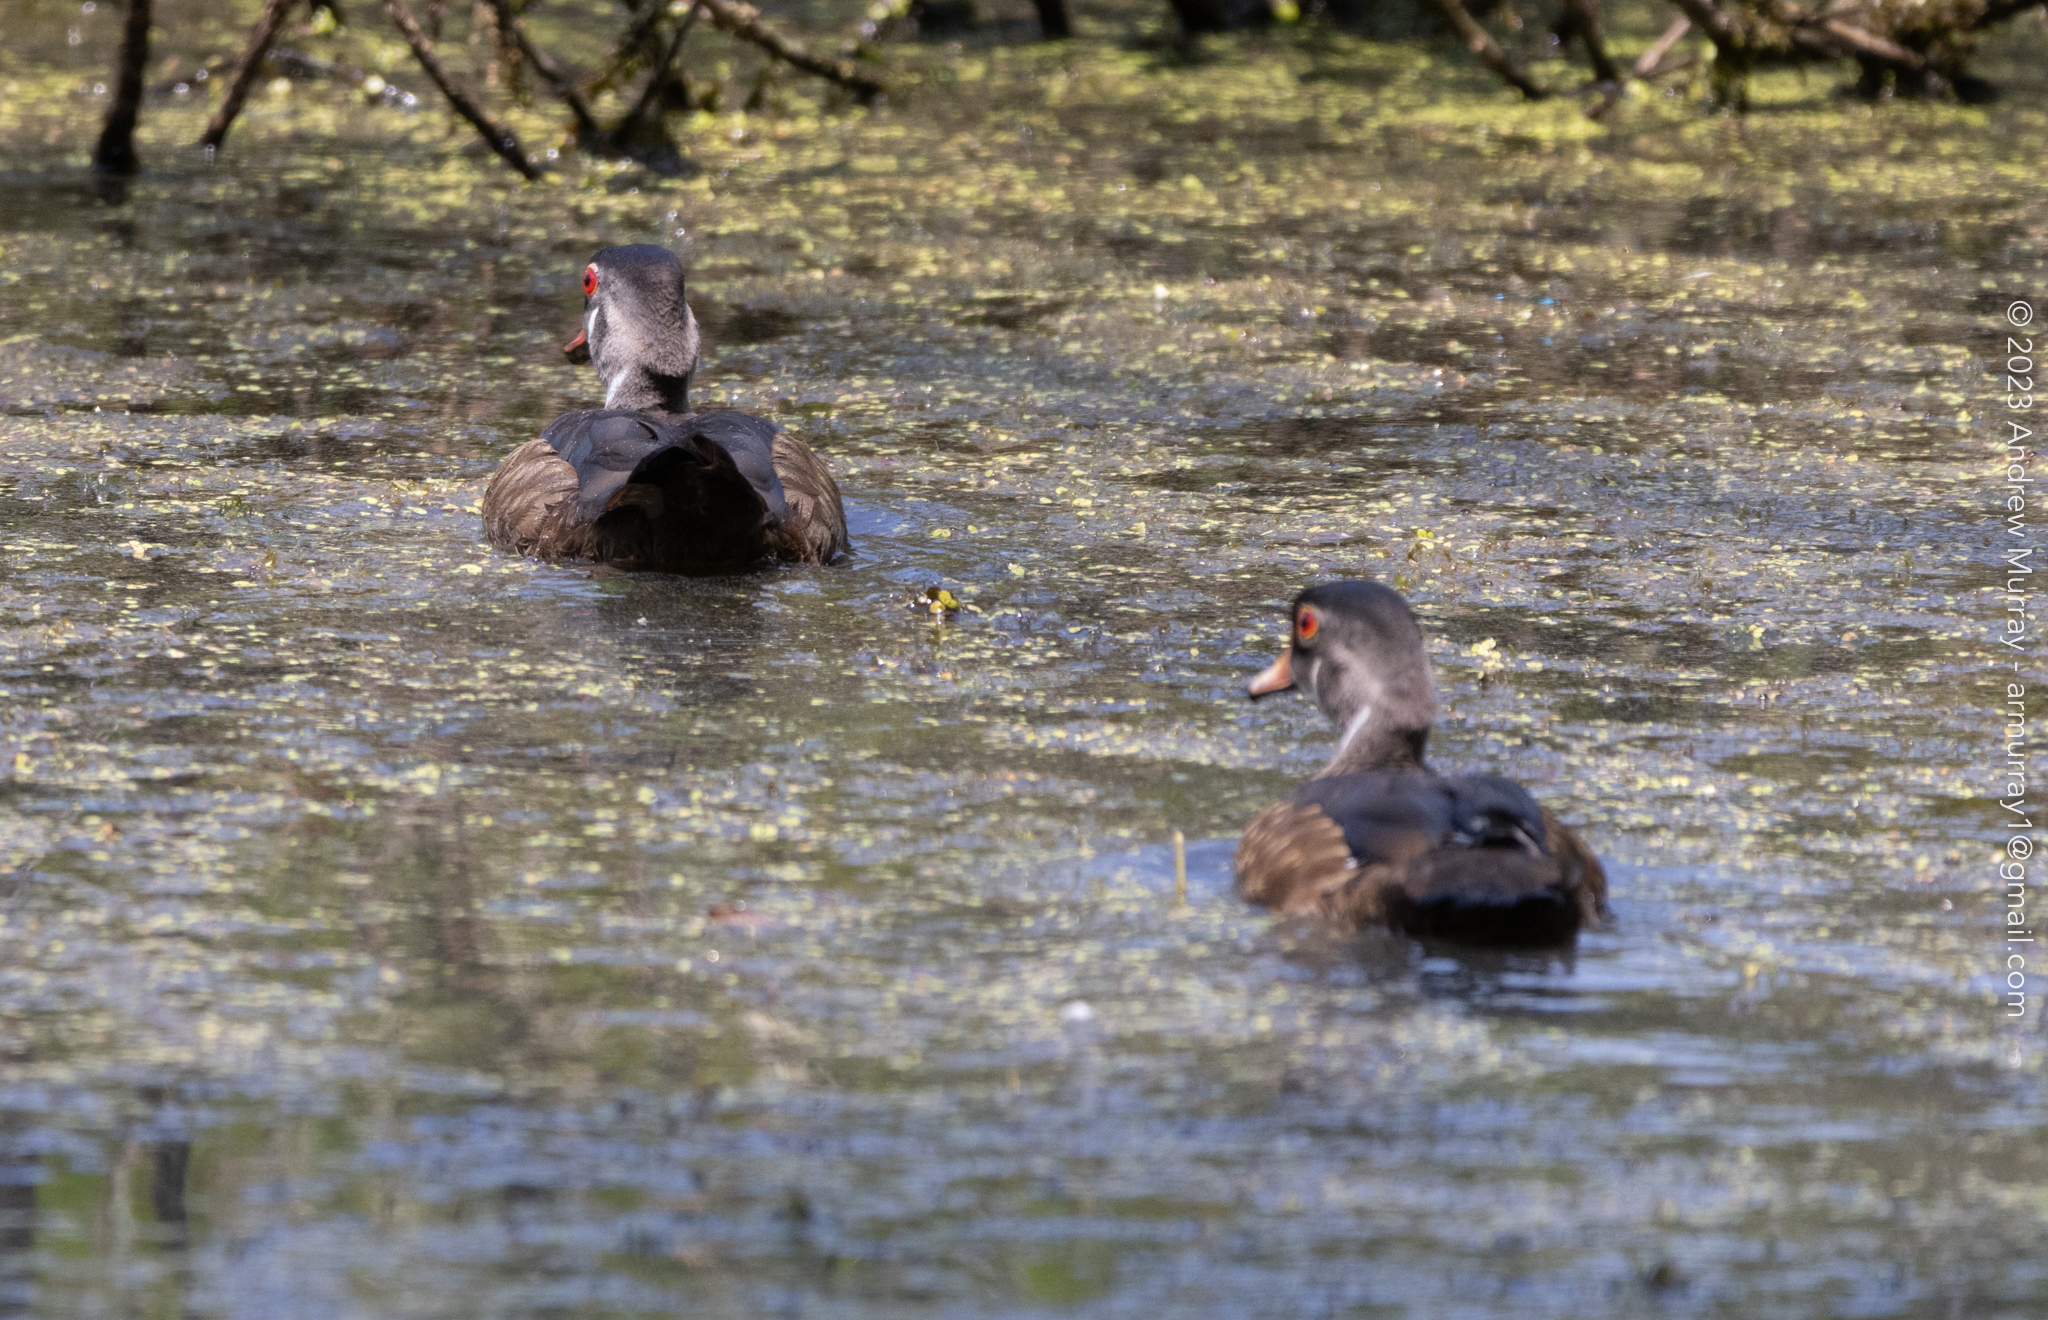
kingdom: Animalia
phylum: Chordata
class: Aves
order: Anseriformes
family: Anatidae
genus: Aix
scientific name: Aix sponsa
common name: Wood duck
